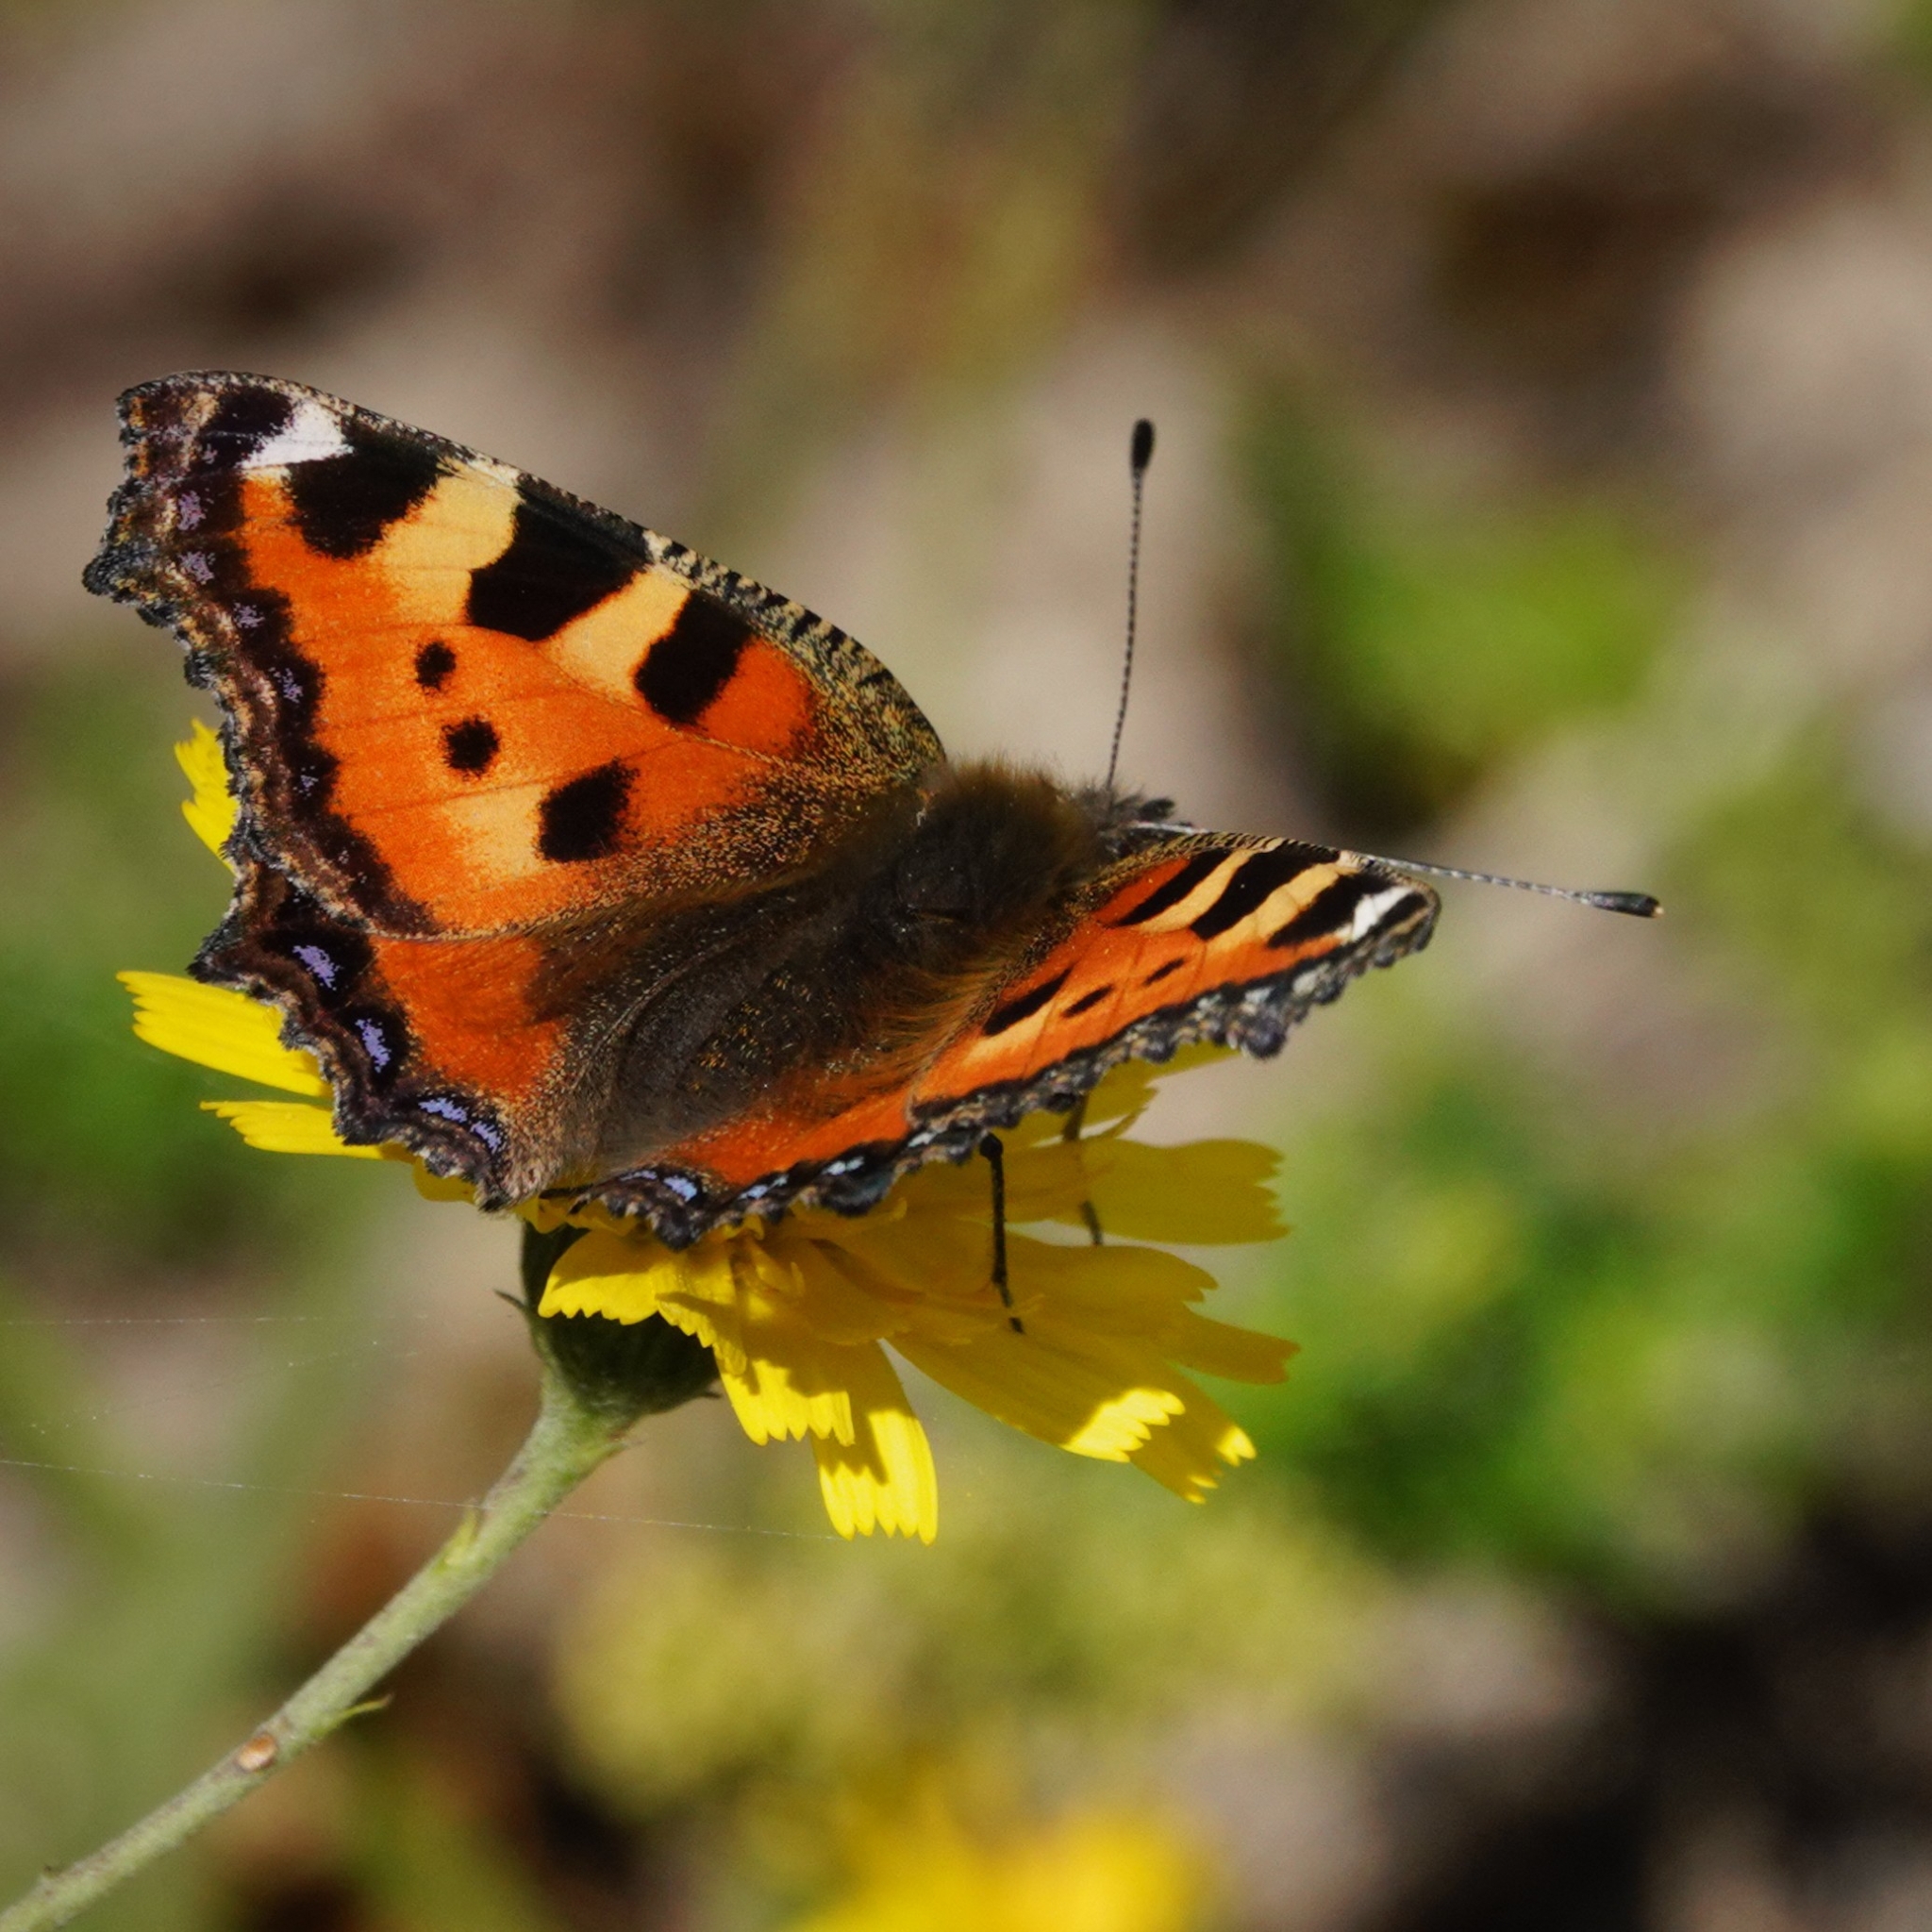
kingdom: Animalia
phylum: Arthropoda
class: Insecta
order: Lepidoptera
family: Nymphalidae
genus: Aglais
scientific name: Aglais urticae
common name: Small tortoiseshell
